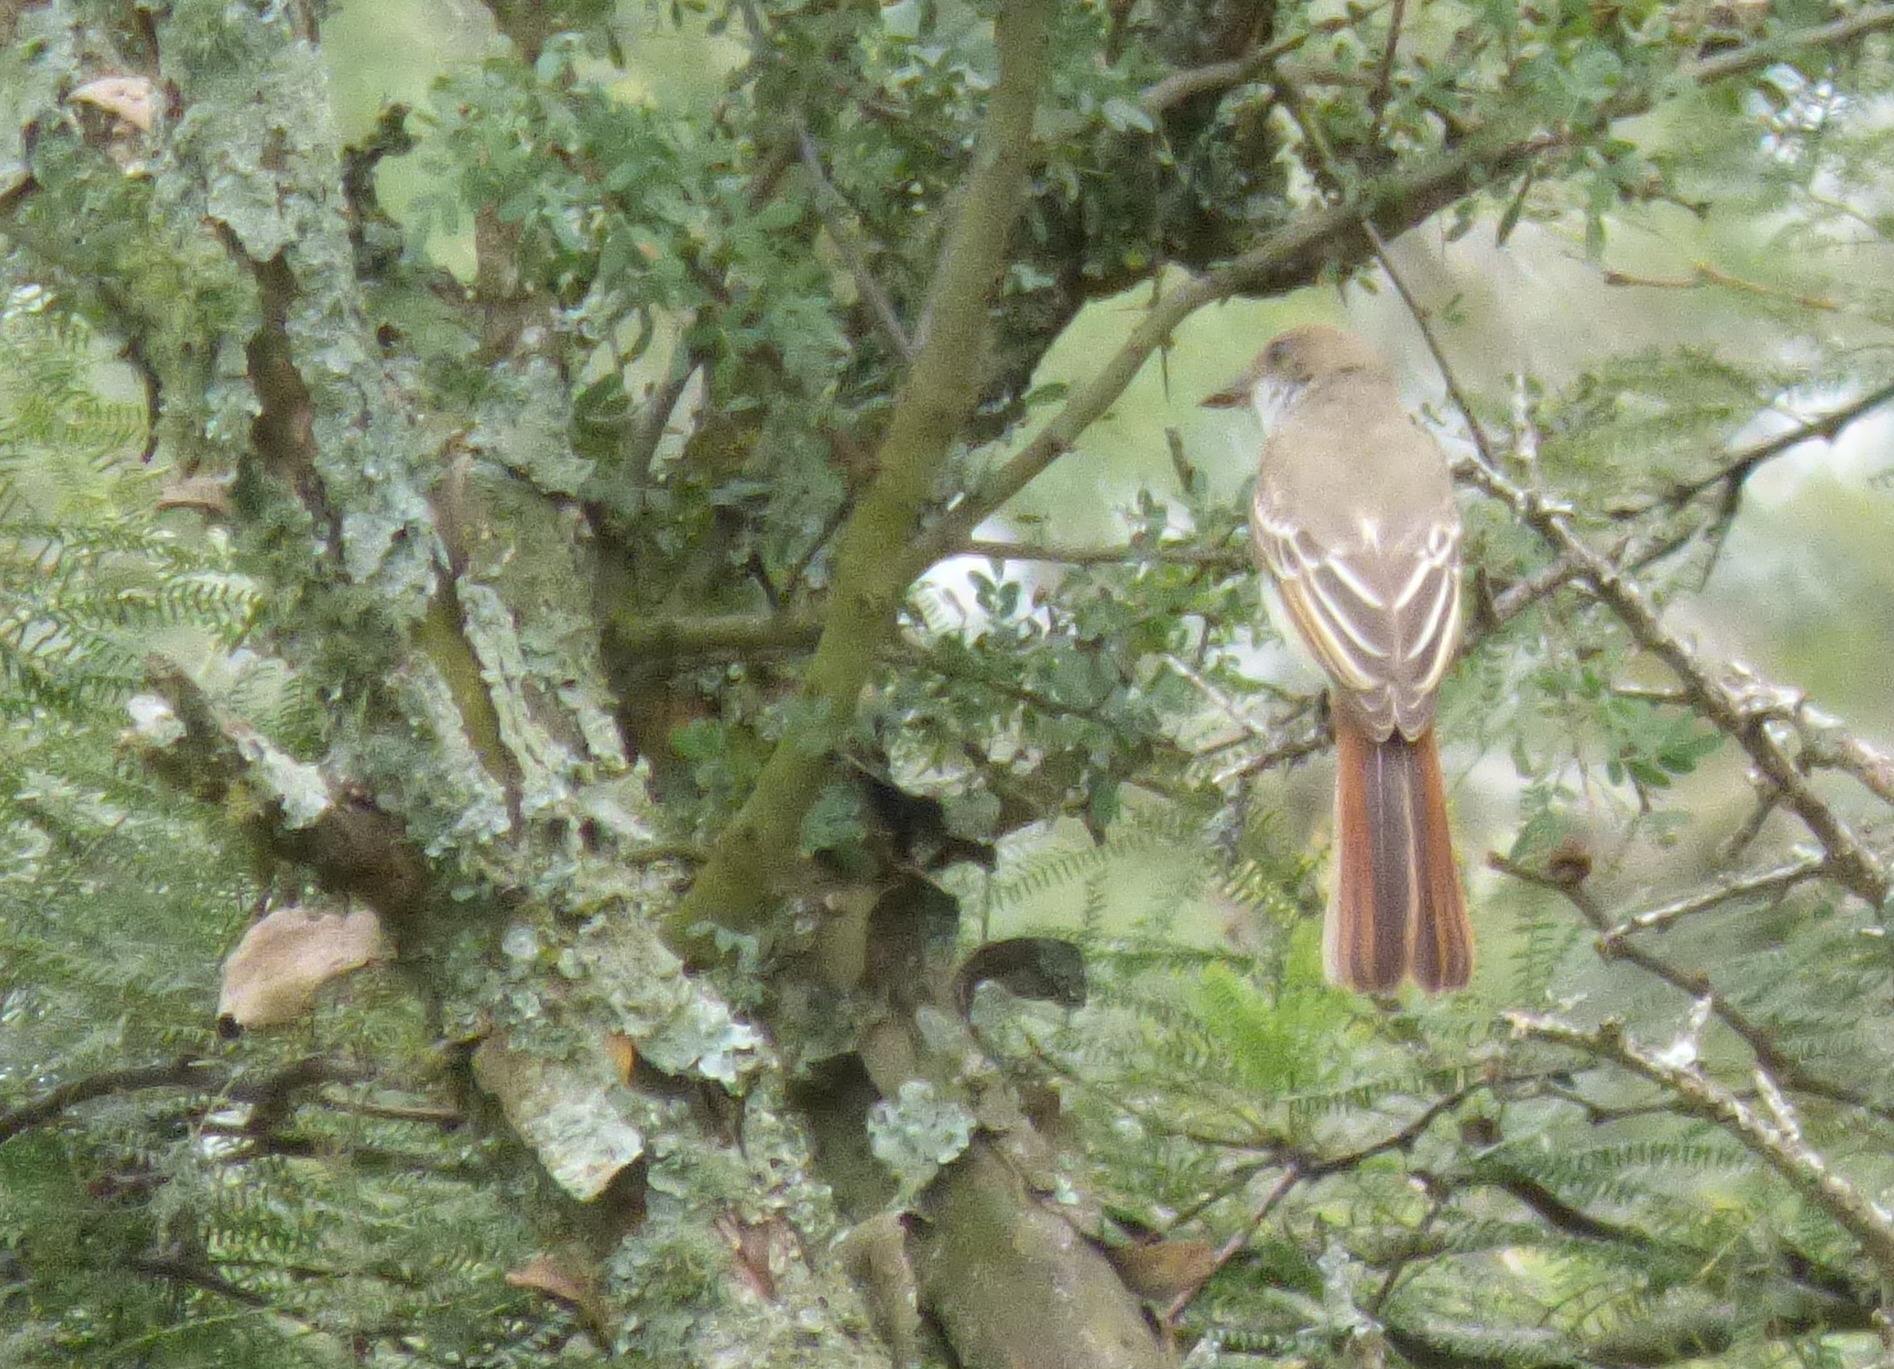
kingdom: Animalia
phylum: Chordata
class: Aves
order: Passeriformes
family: Tyrannidae
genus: Myiarchus
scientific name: Myiarchus swainsoni
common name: Swainson's flycatcher
